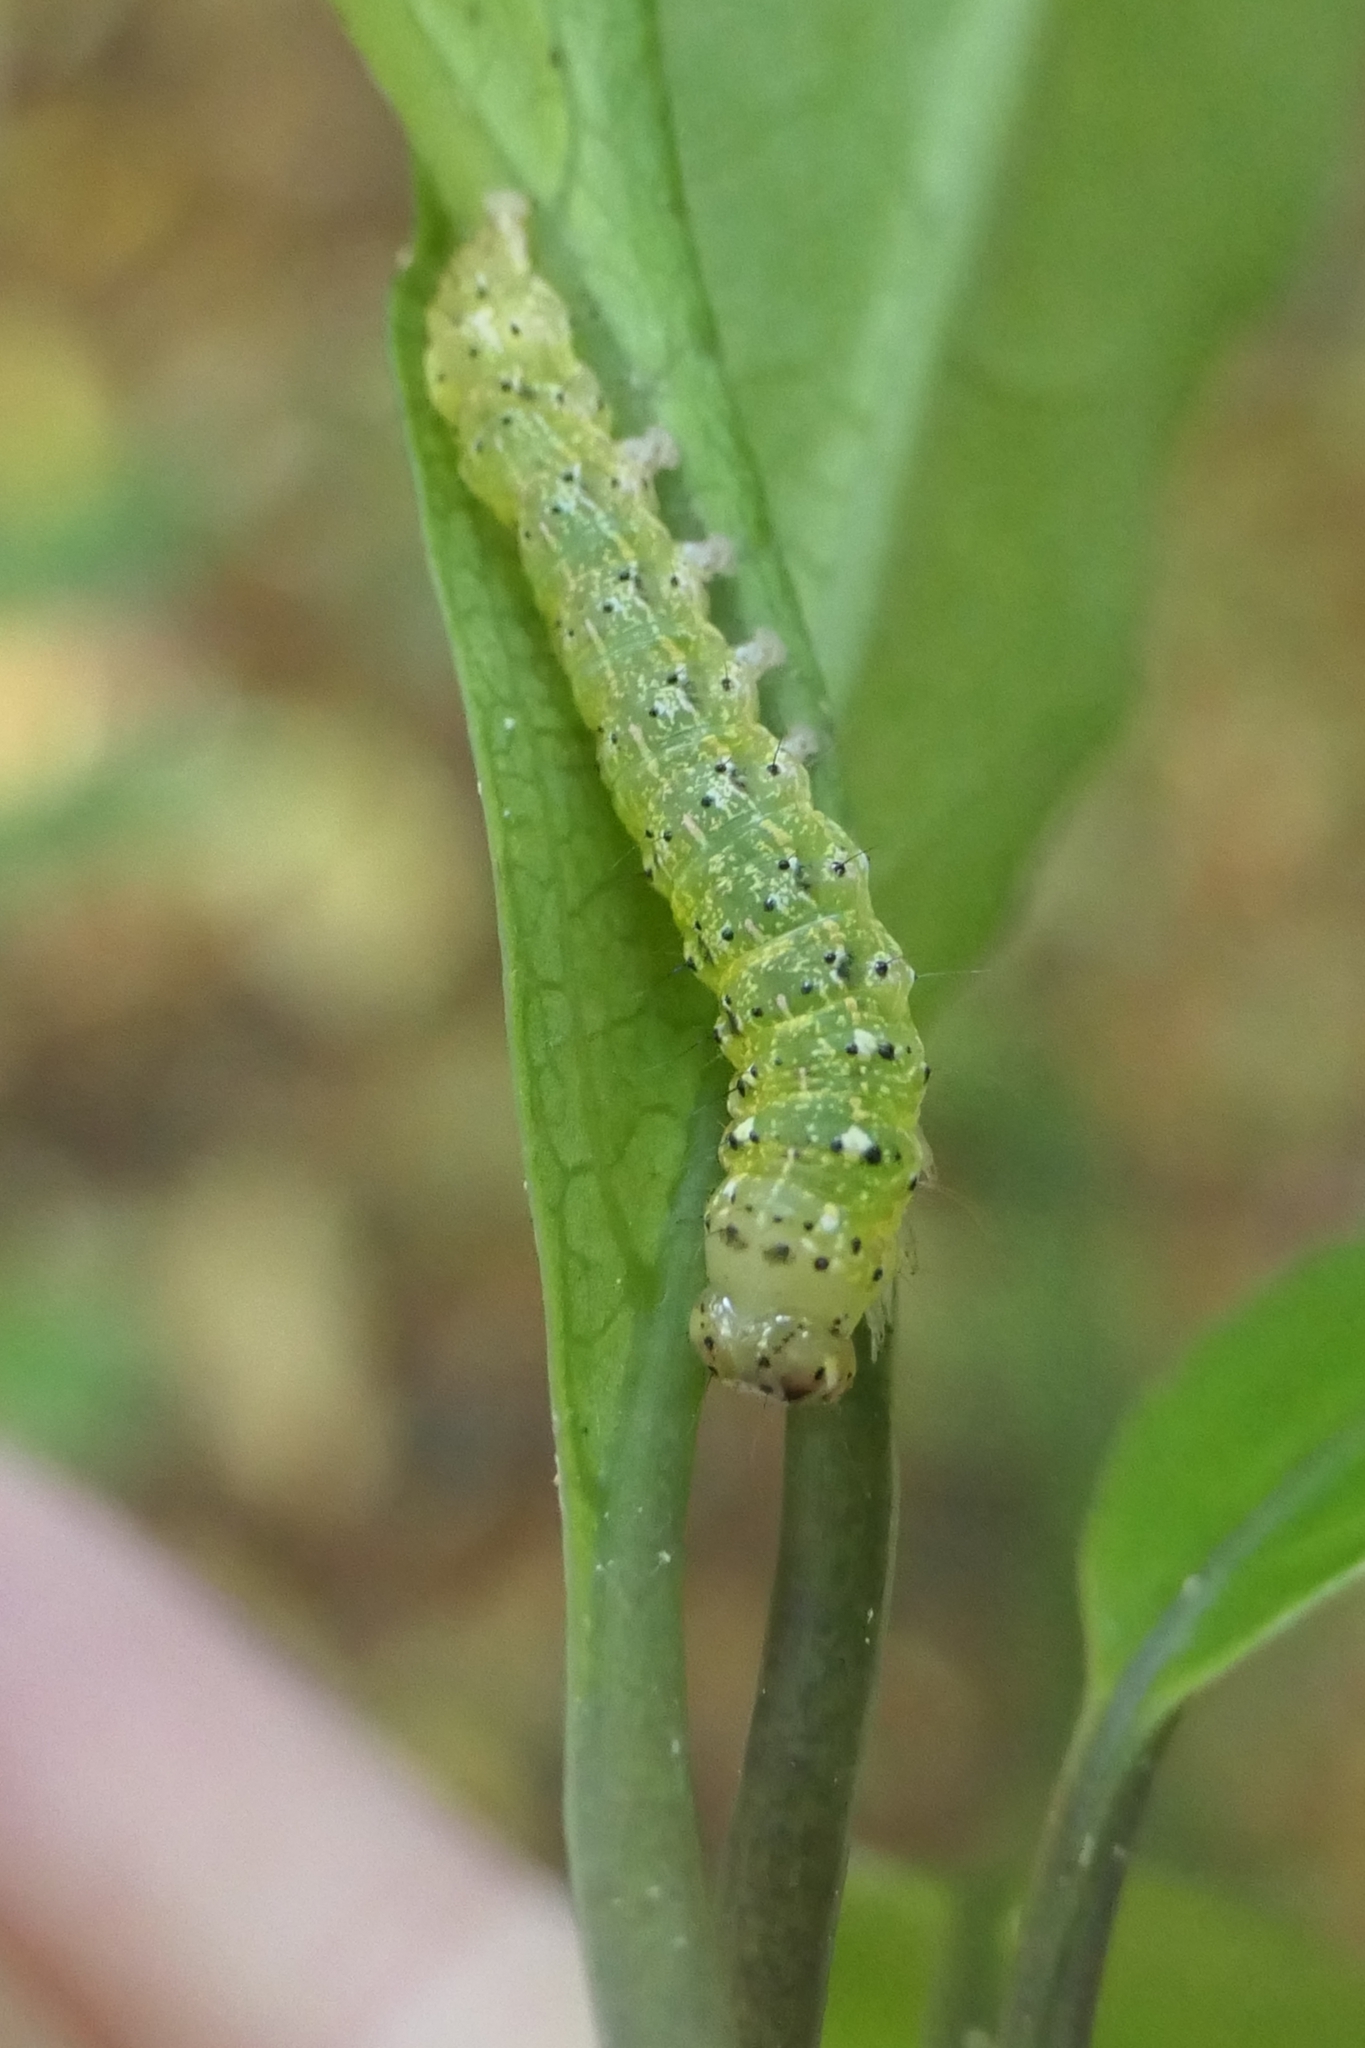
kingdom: Animalia
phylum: Arthropoda
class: Insecta
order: Lepidoptera
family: Noctuidae
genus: Feredayia
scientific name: Feredayia grammosa
